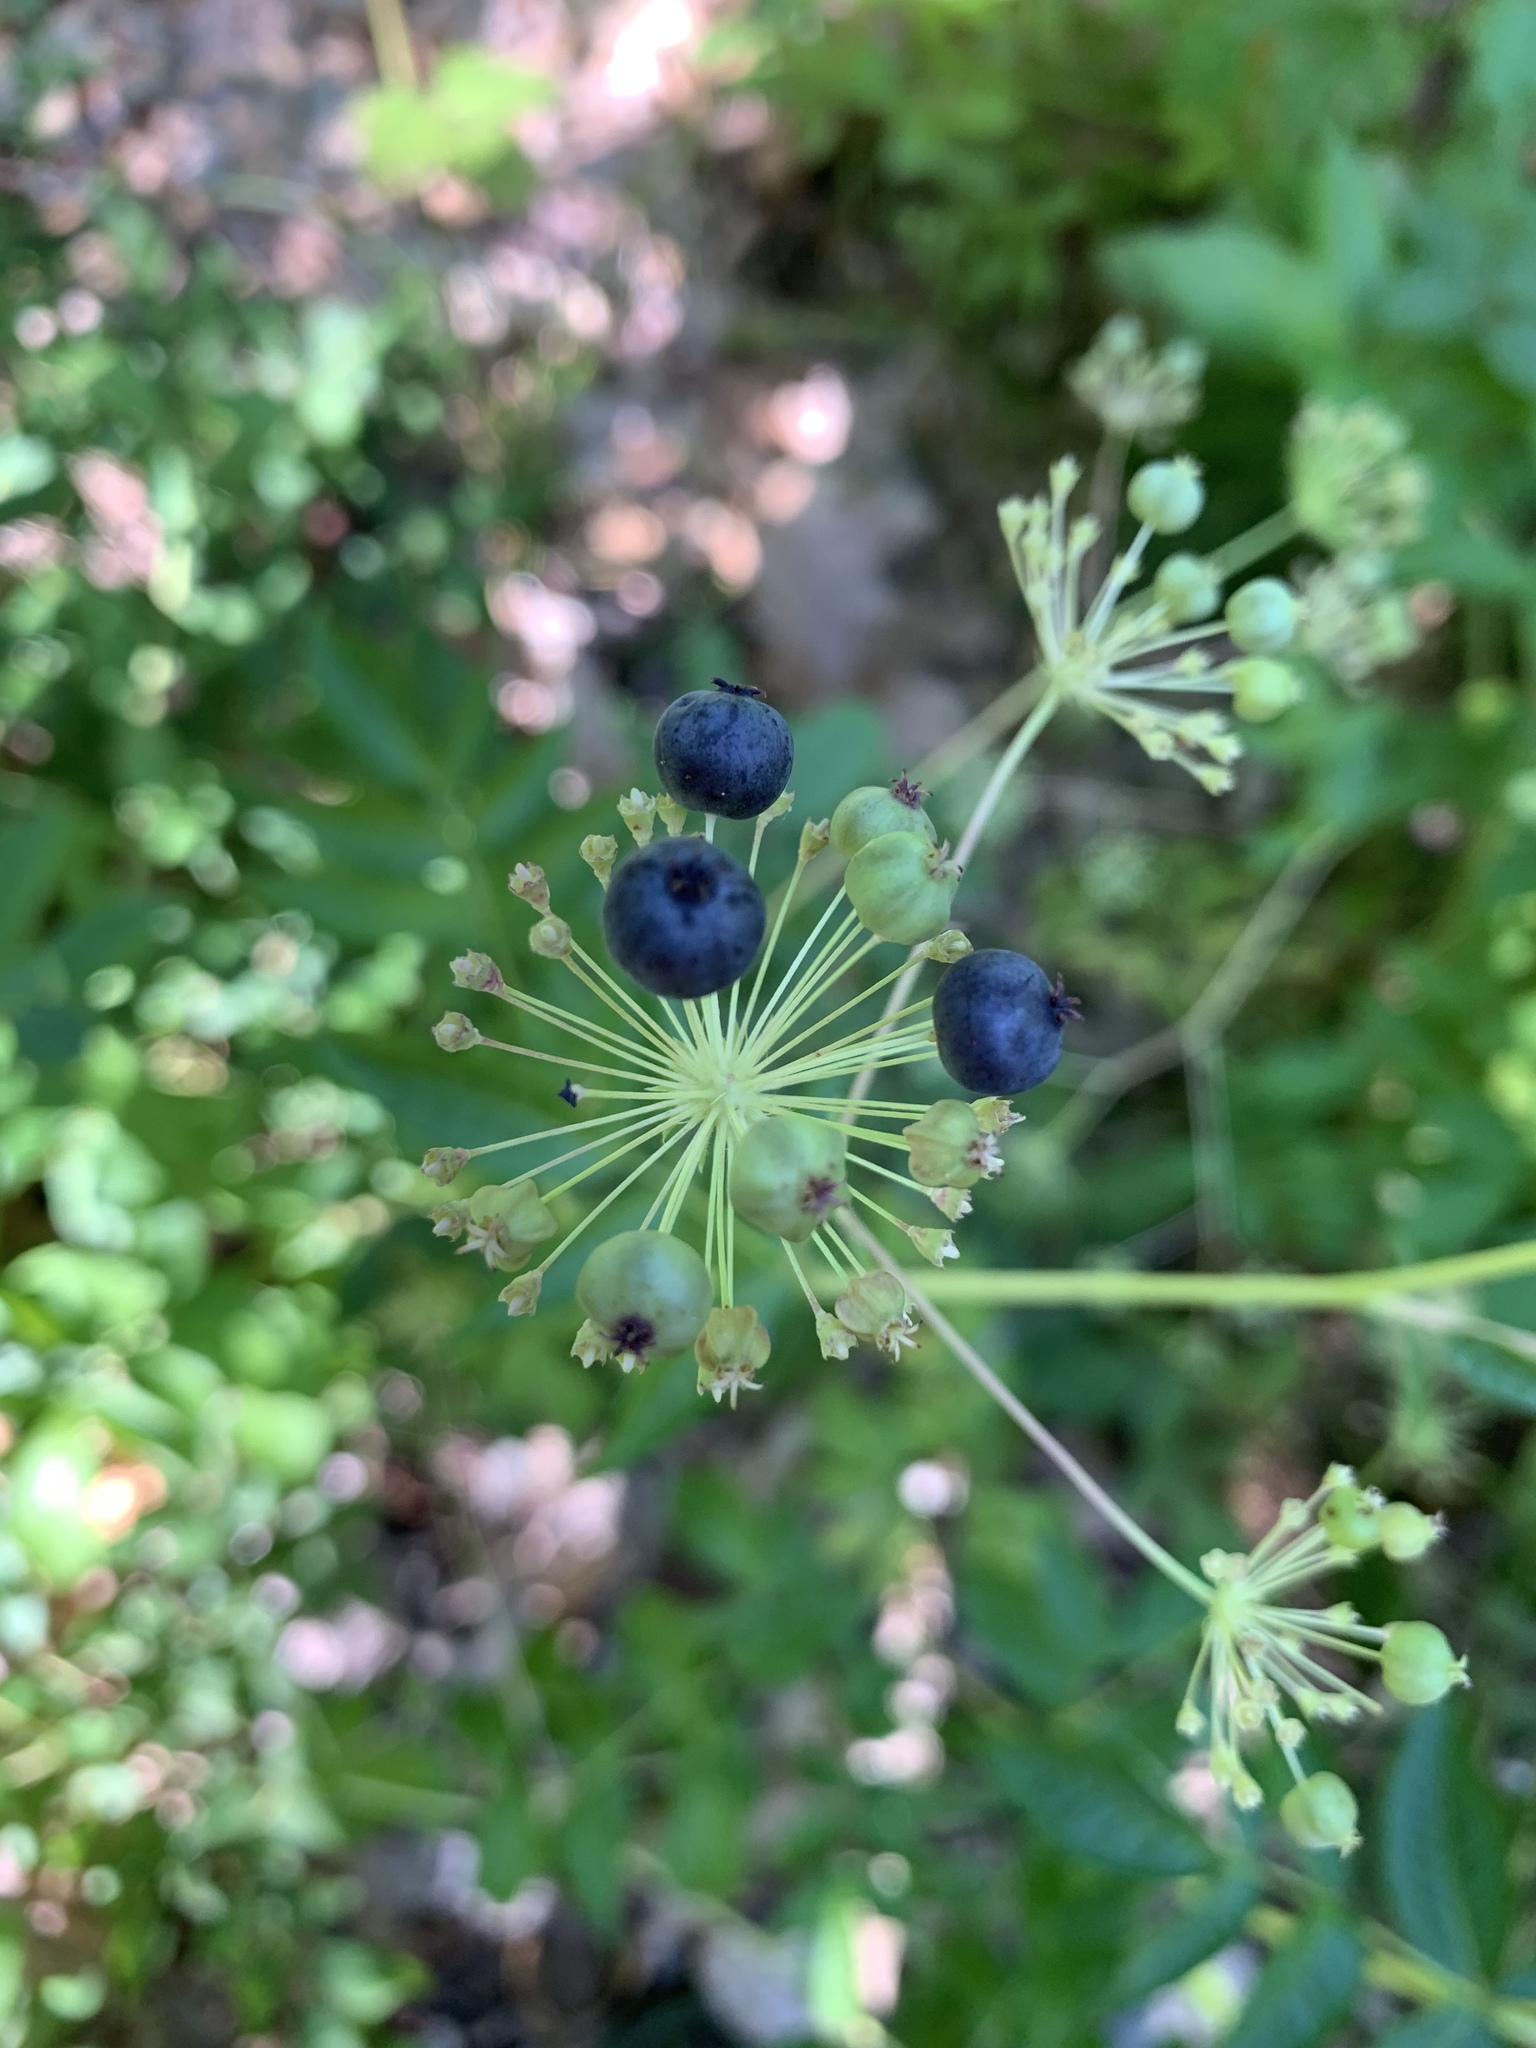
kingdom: Plantae
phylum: Tracheophyta
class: Magnoliopsida
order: Apiales
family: Araliaceae
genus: Aralia
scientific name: Aralia hispida
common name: Bristly sarsaparilla
